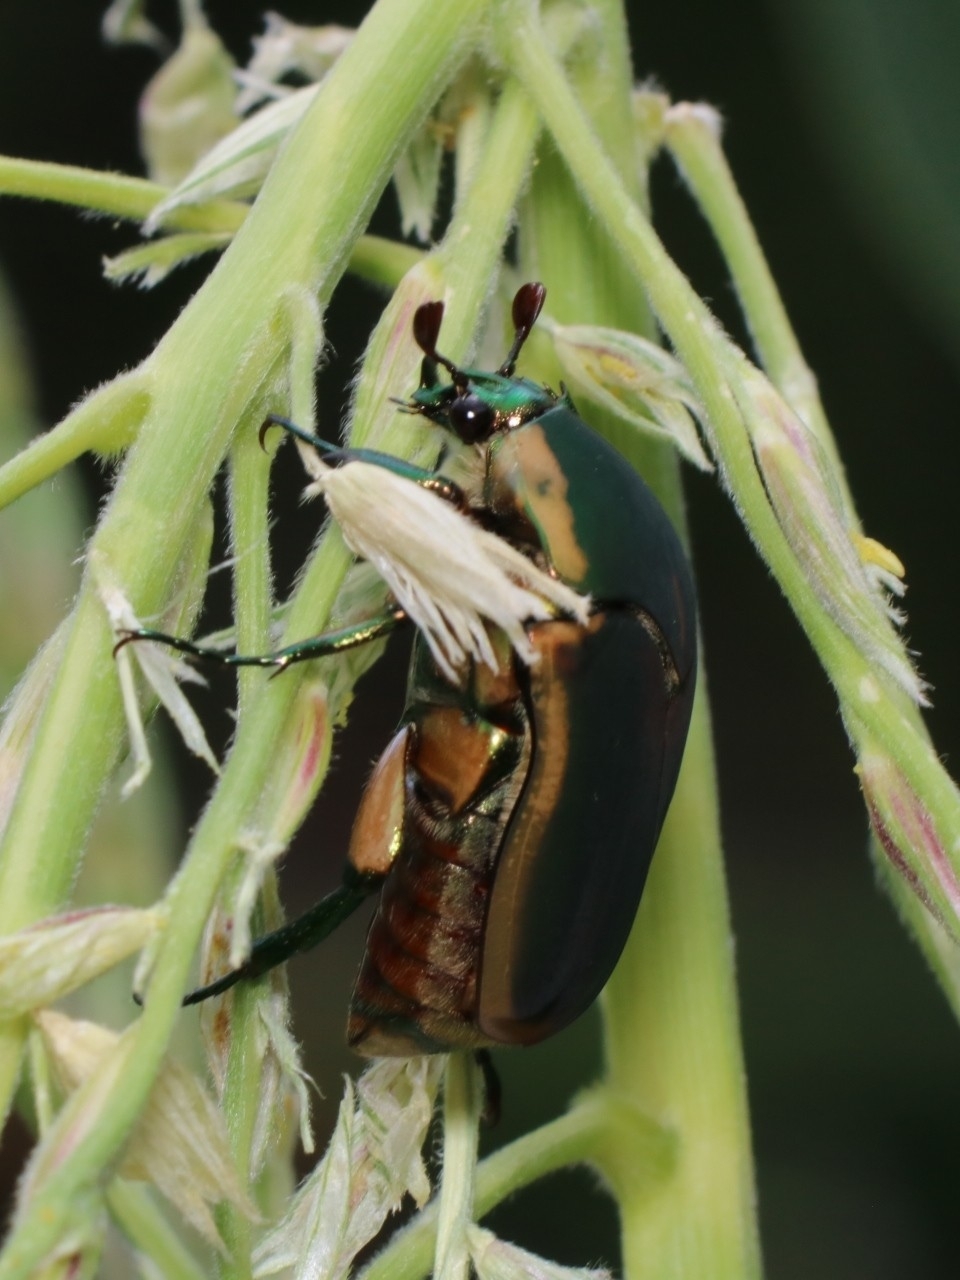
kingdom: Animalia
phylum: Arthropoda
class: Insecta
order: Coleoptera
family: Scarabaeidae
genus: Cotinis
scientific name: Cotinis nitida
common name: Common green june beetle
